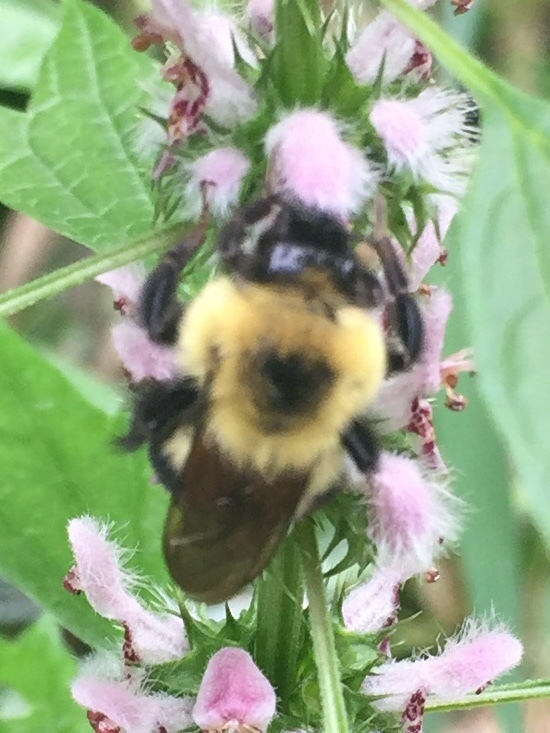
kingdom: Animalia
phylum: Arthropoda
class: Insecta
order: Hymenoptera
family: Apidae
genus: Bombus
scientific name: Bombus bimaculatus
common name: Two-spotted bumble bee
